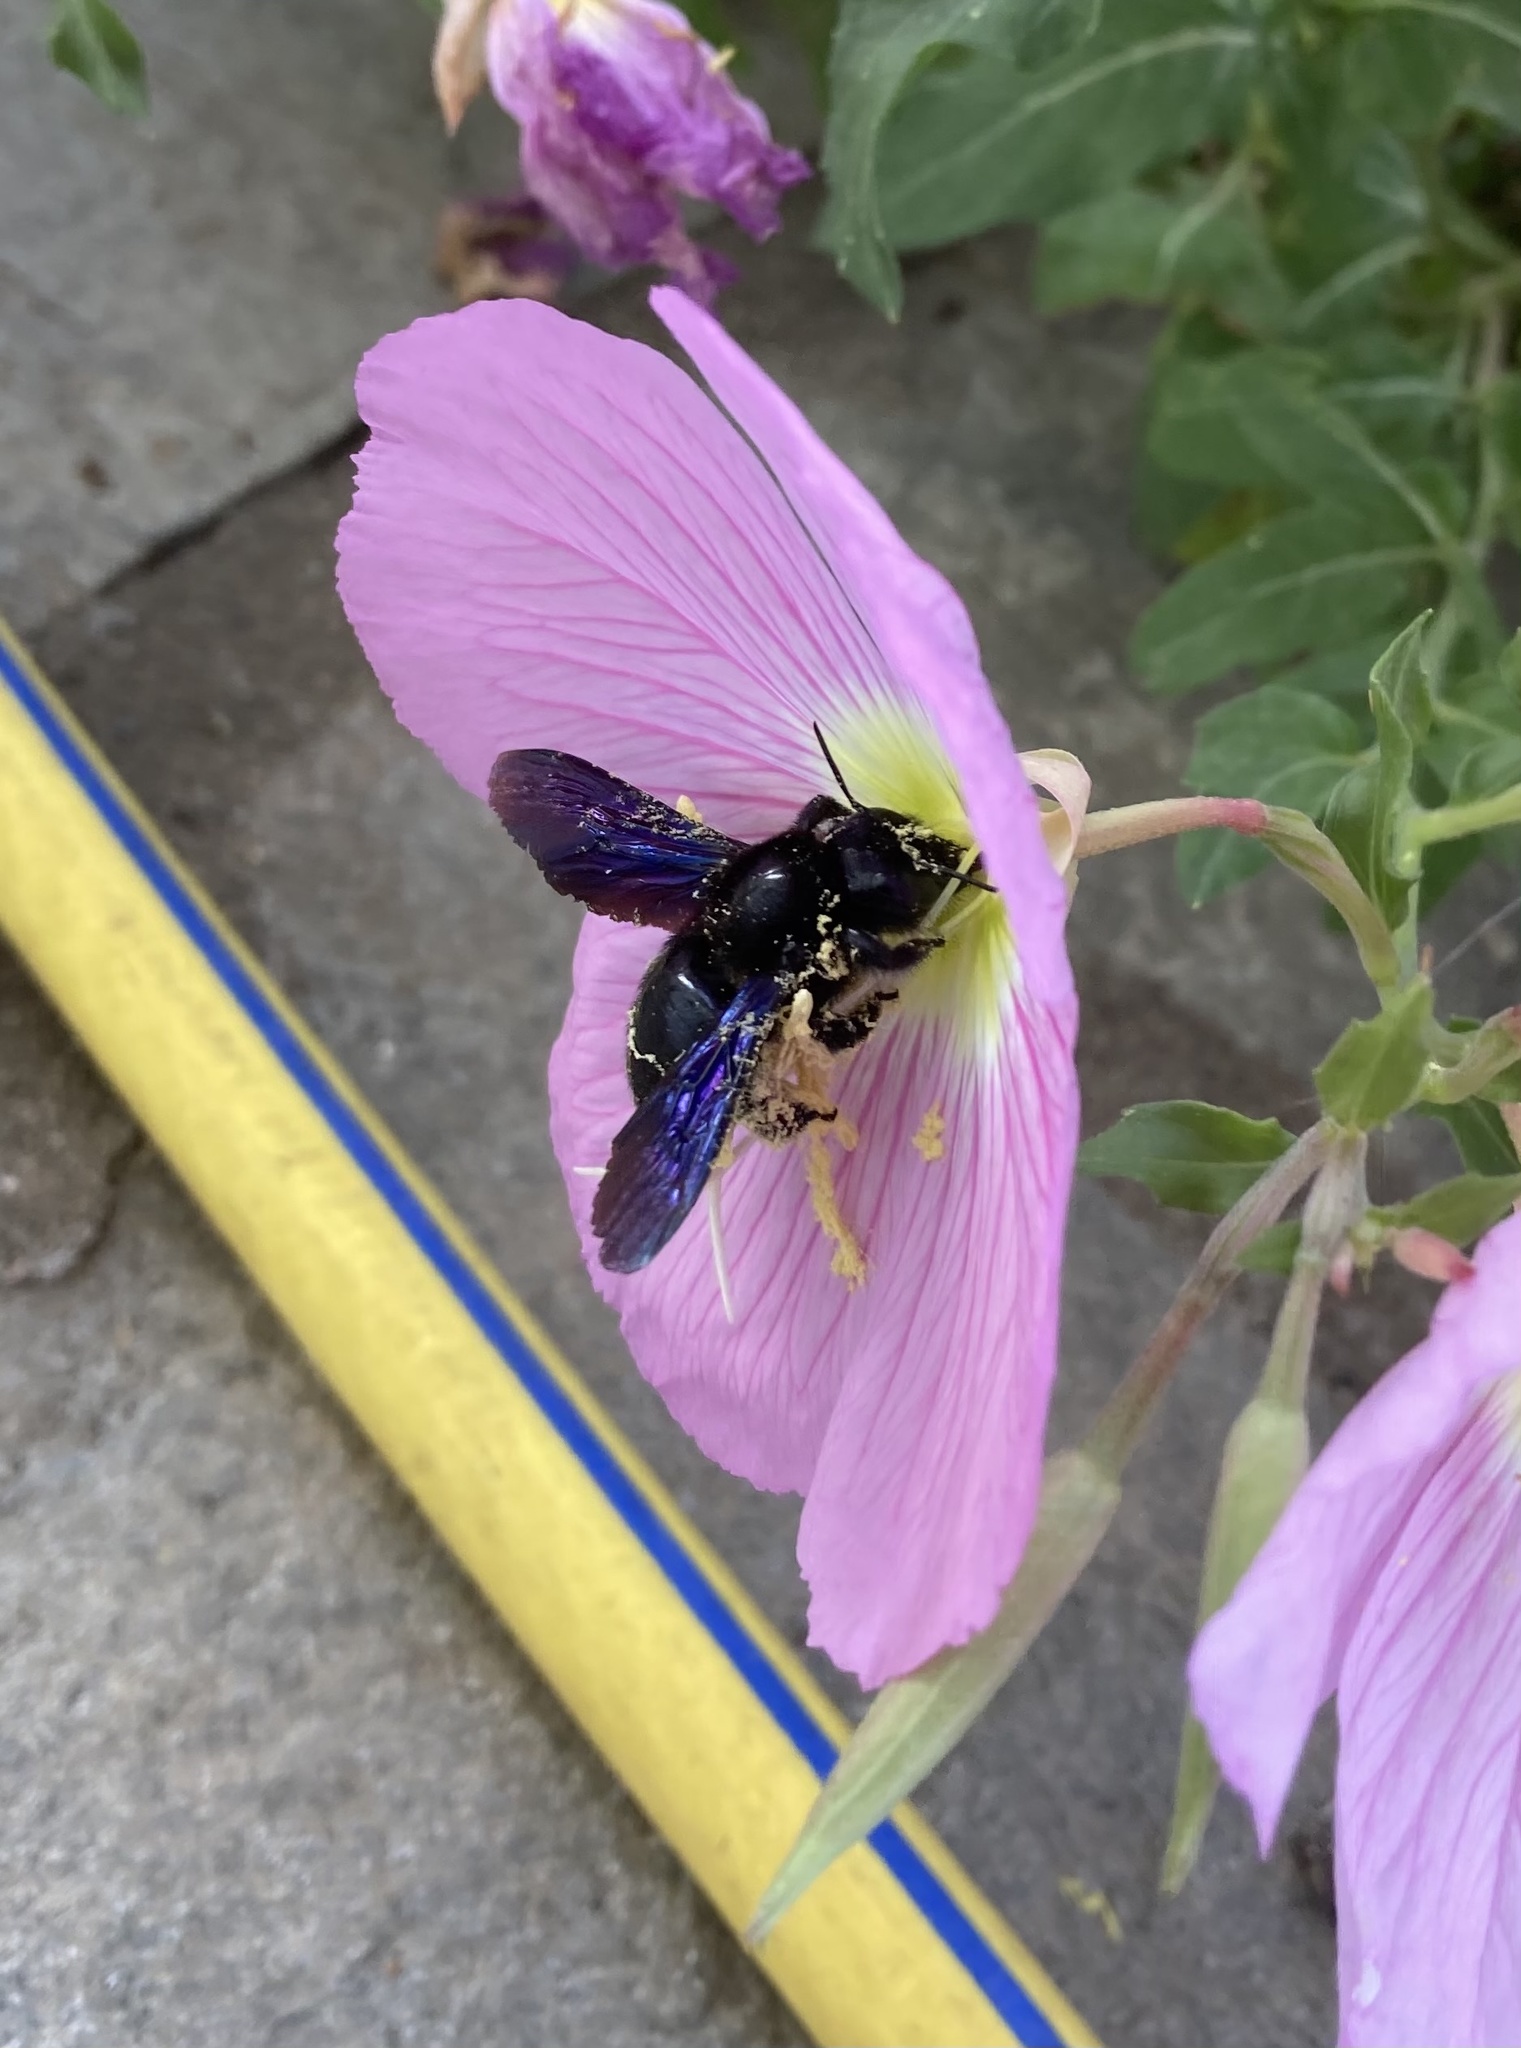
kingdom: Animalia
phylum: Arthropoda
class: Insecta
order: Hymenoptera
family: Apidae
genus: Xylocopa
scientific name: Xylocopa violacea
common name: Violet carpenter bee
